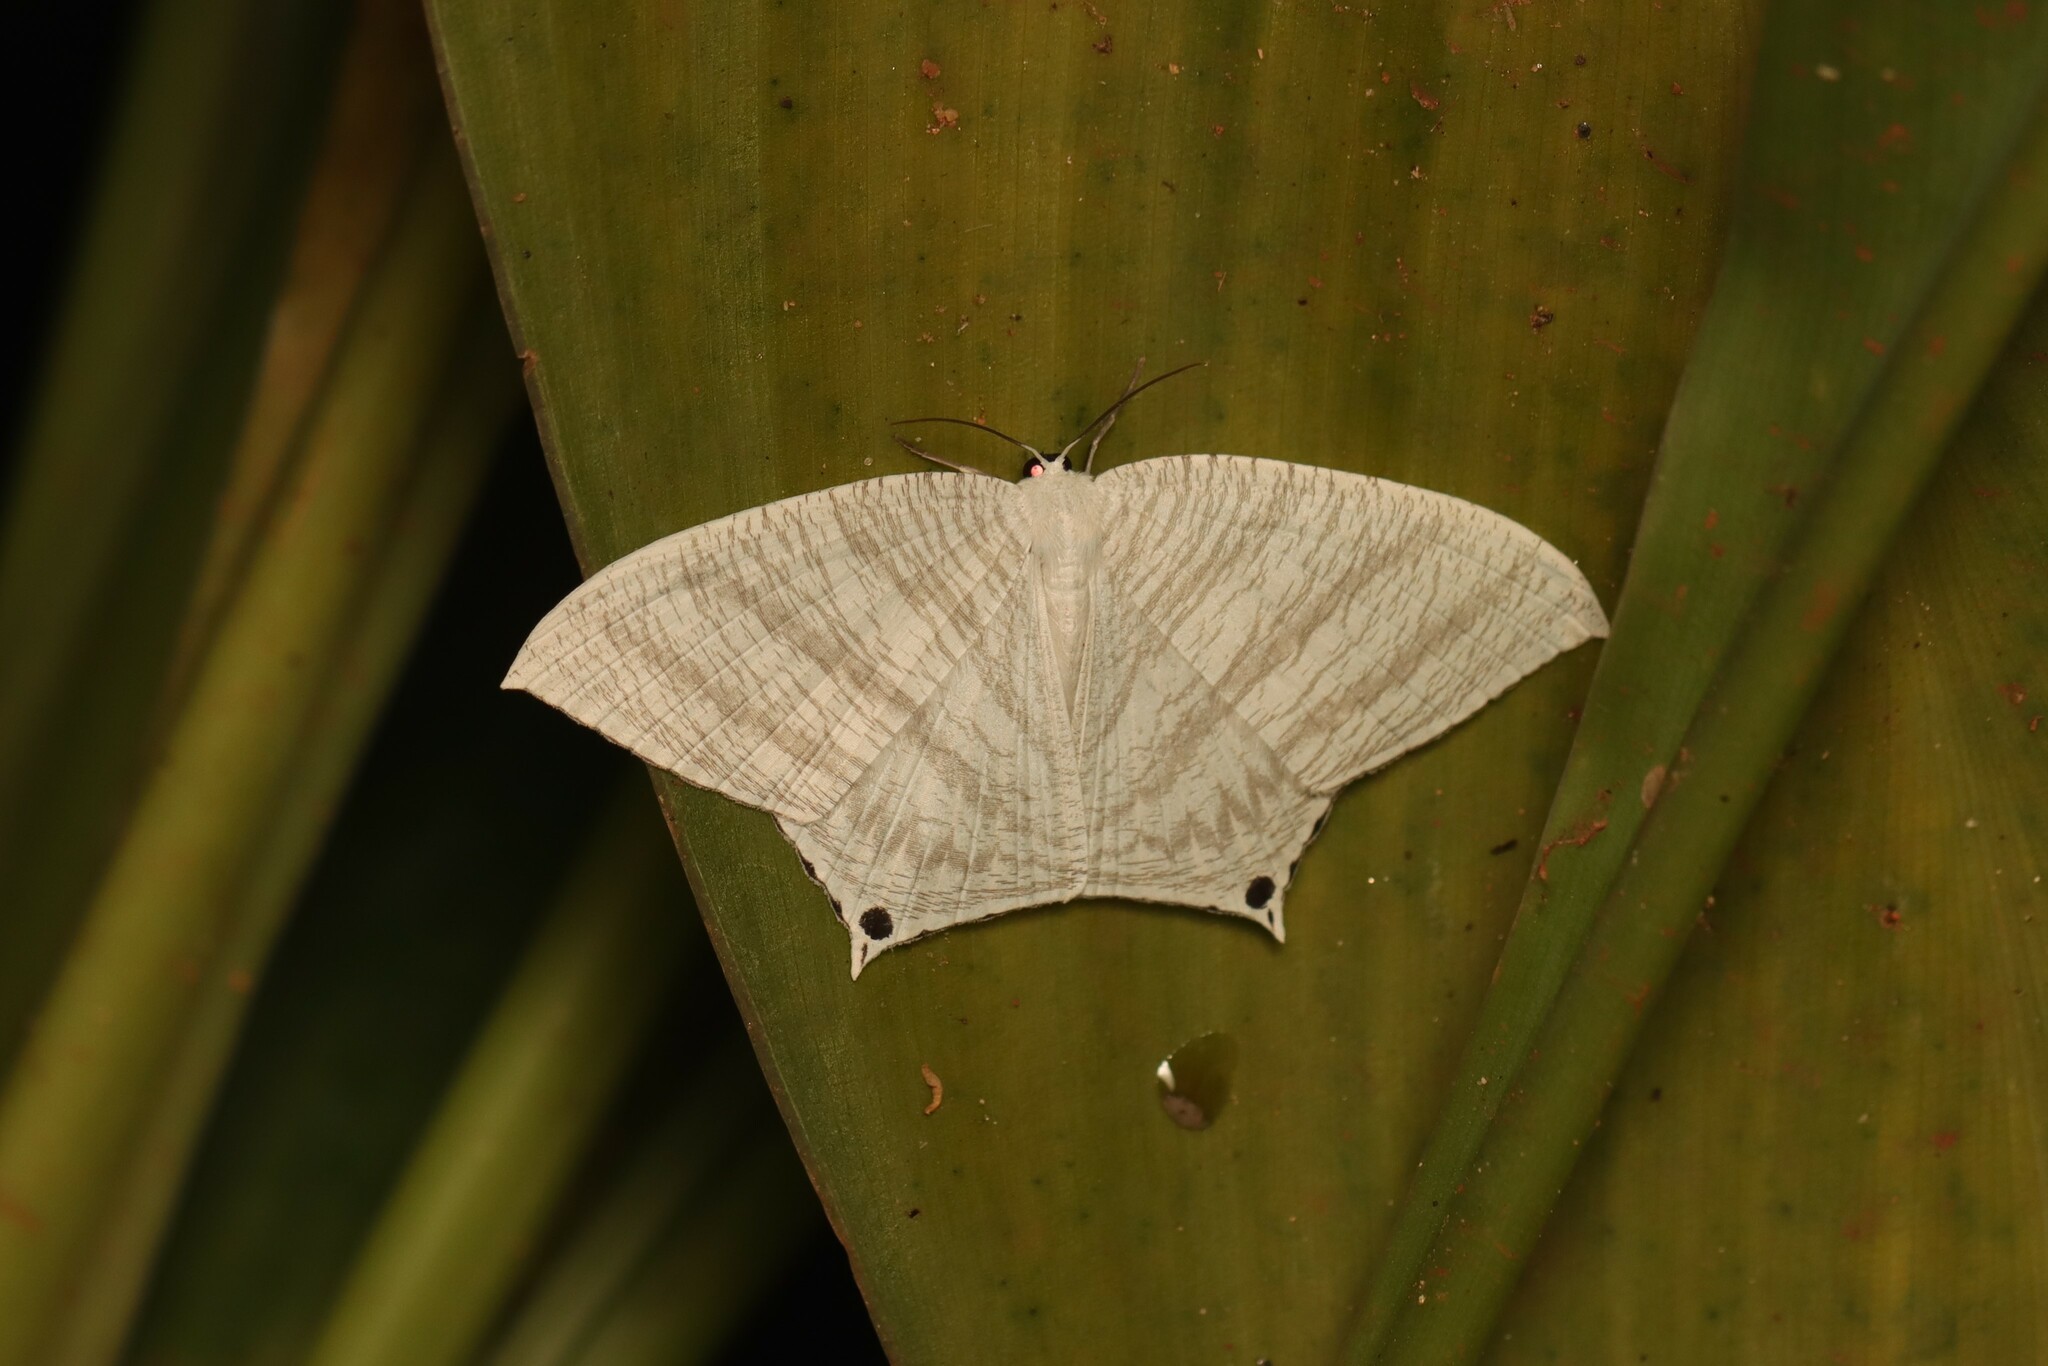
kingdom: Animalia
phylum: Arthropoda
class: Insecta
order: Lepidoptera
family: Uraniidae
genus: Micronia
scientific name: Micronia aculeata
